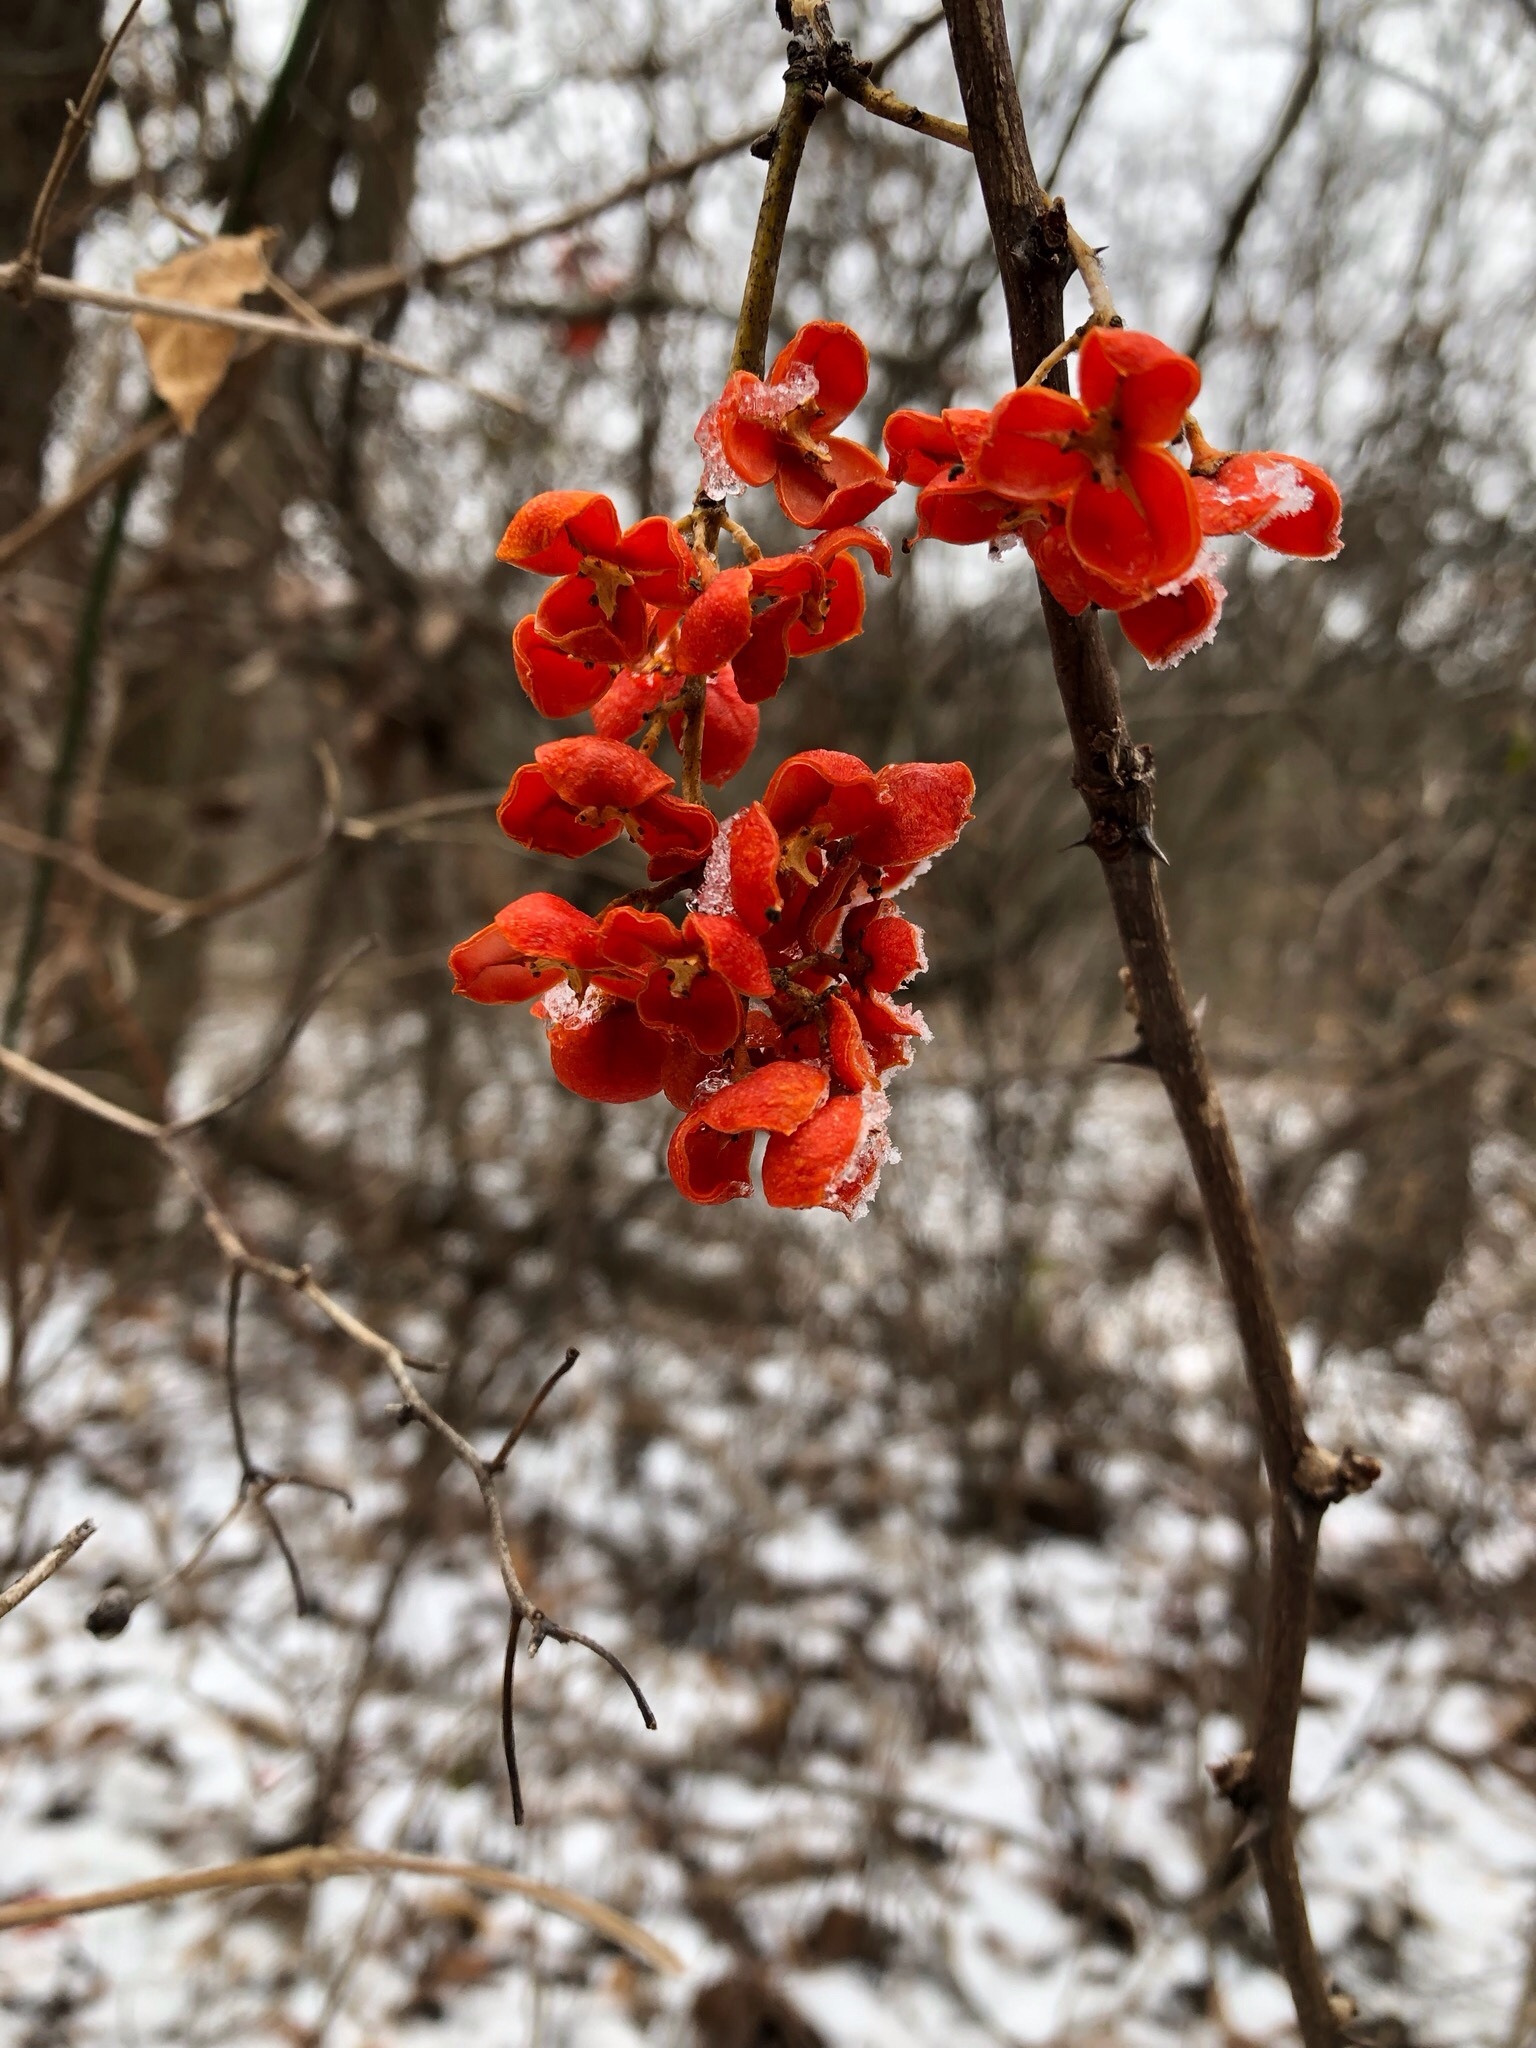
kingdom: Plantae
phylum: Tracheophyta
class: Magnoliopsida
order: Celastrales
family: Celastraceae
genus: Celastrus
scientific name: Celastrus scandens
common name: American bittersweet
